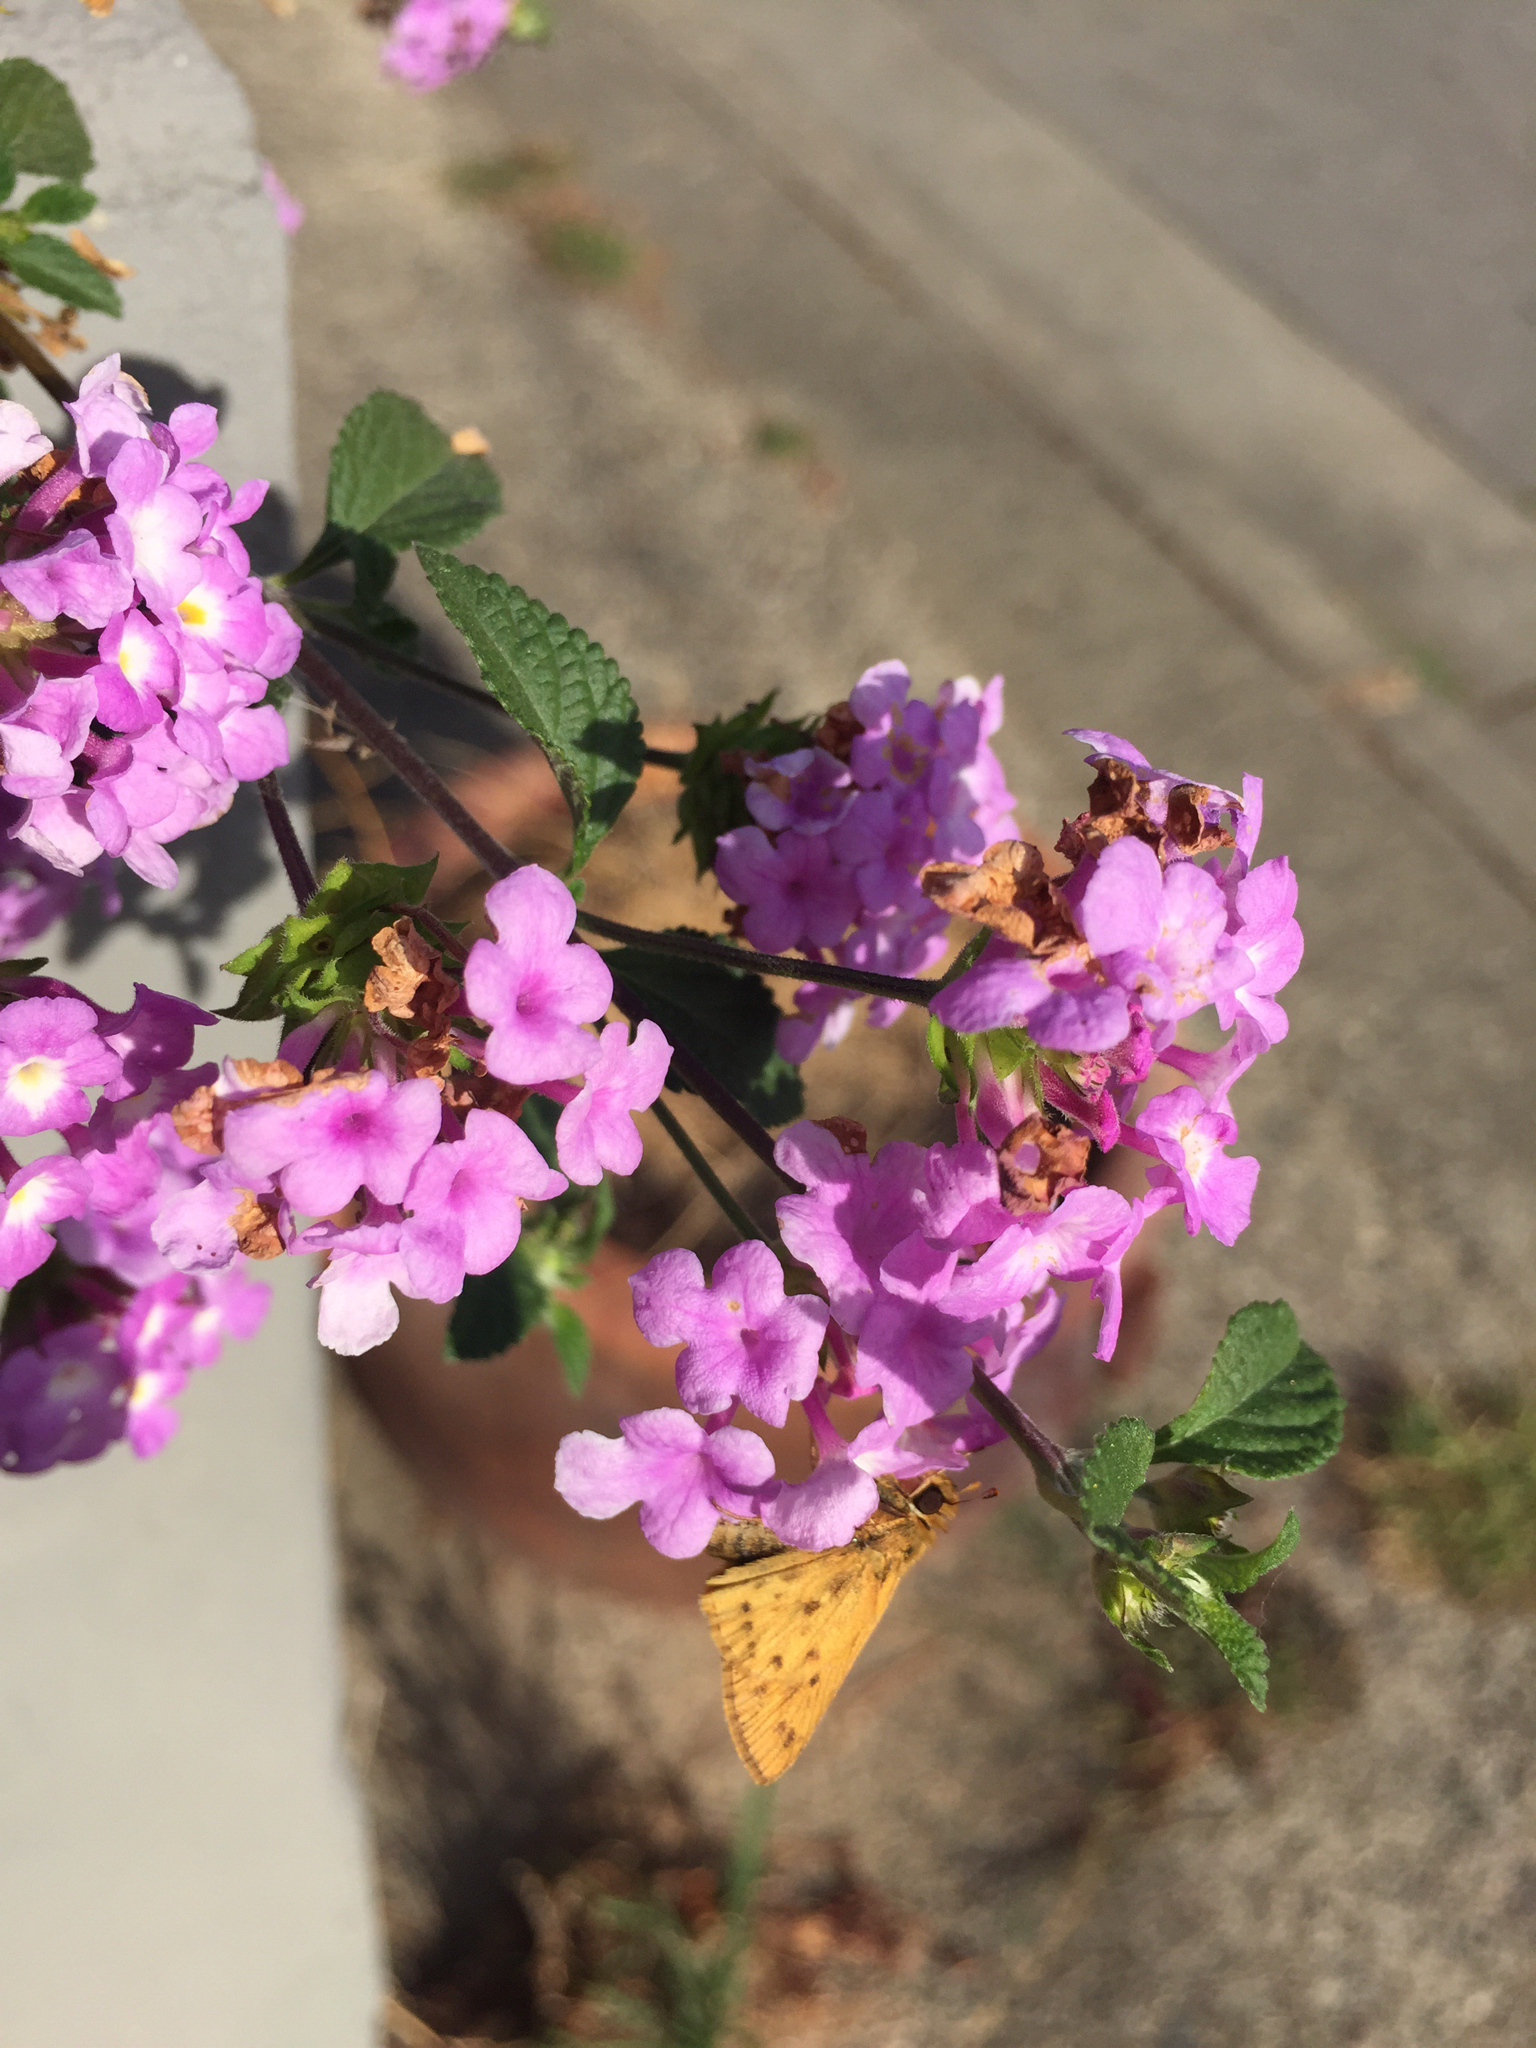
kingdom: Animalia
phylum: Arthropoda
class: Insecta
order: Lepidoptera
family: Hesperiidae
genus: Hylephila
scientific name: Hylephila phyleus
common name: Fiery skipper
